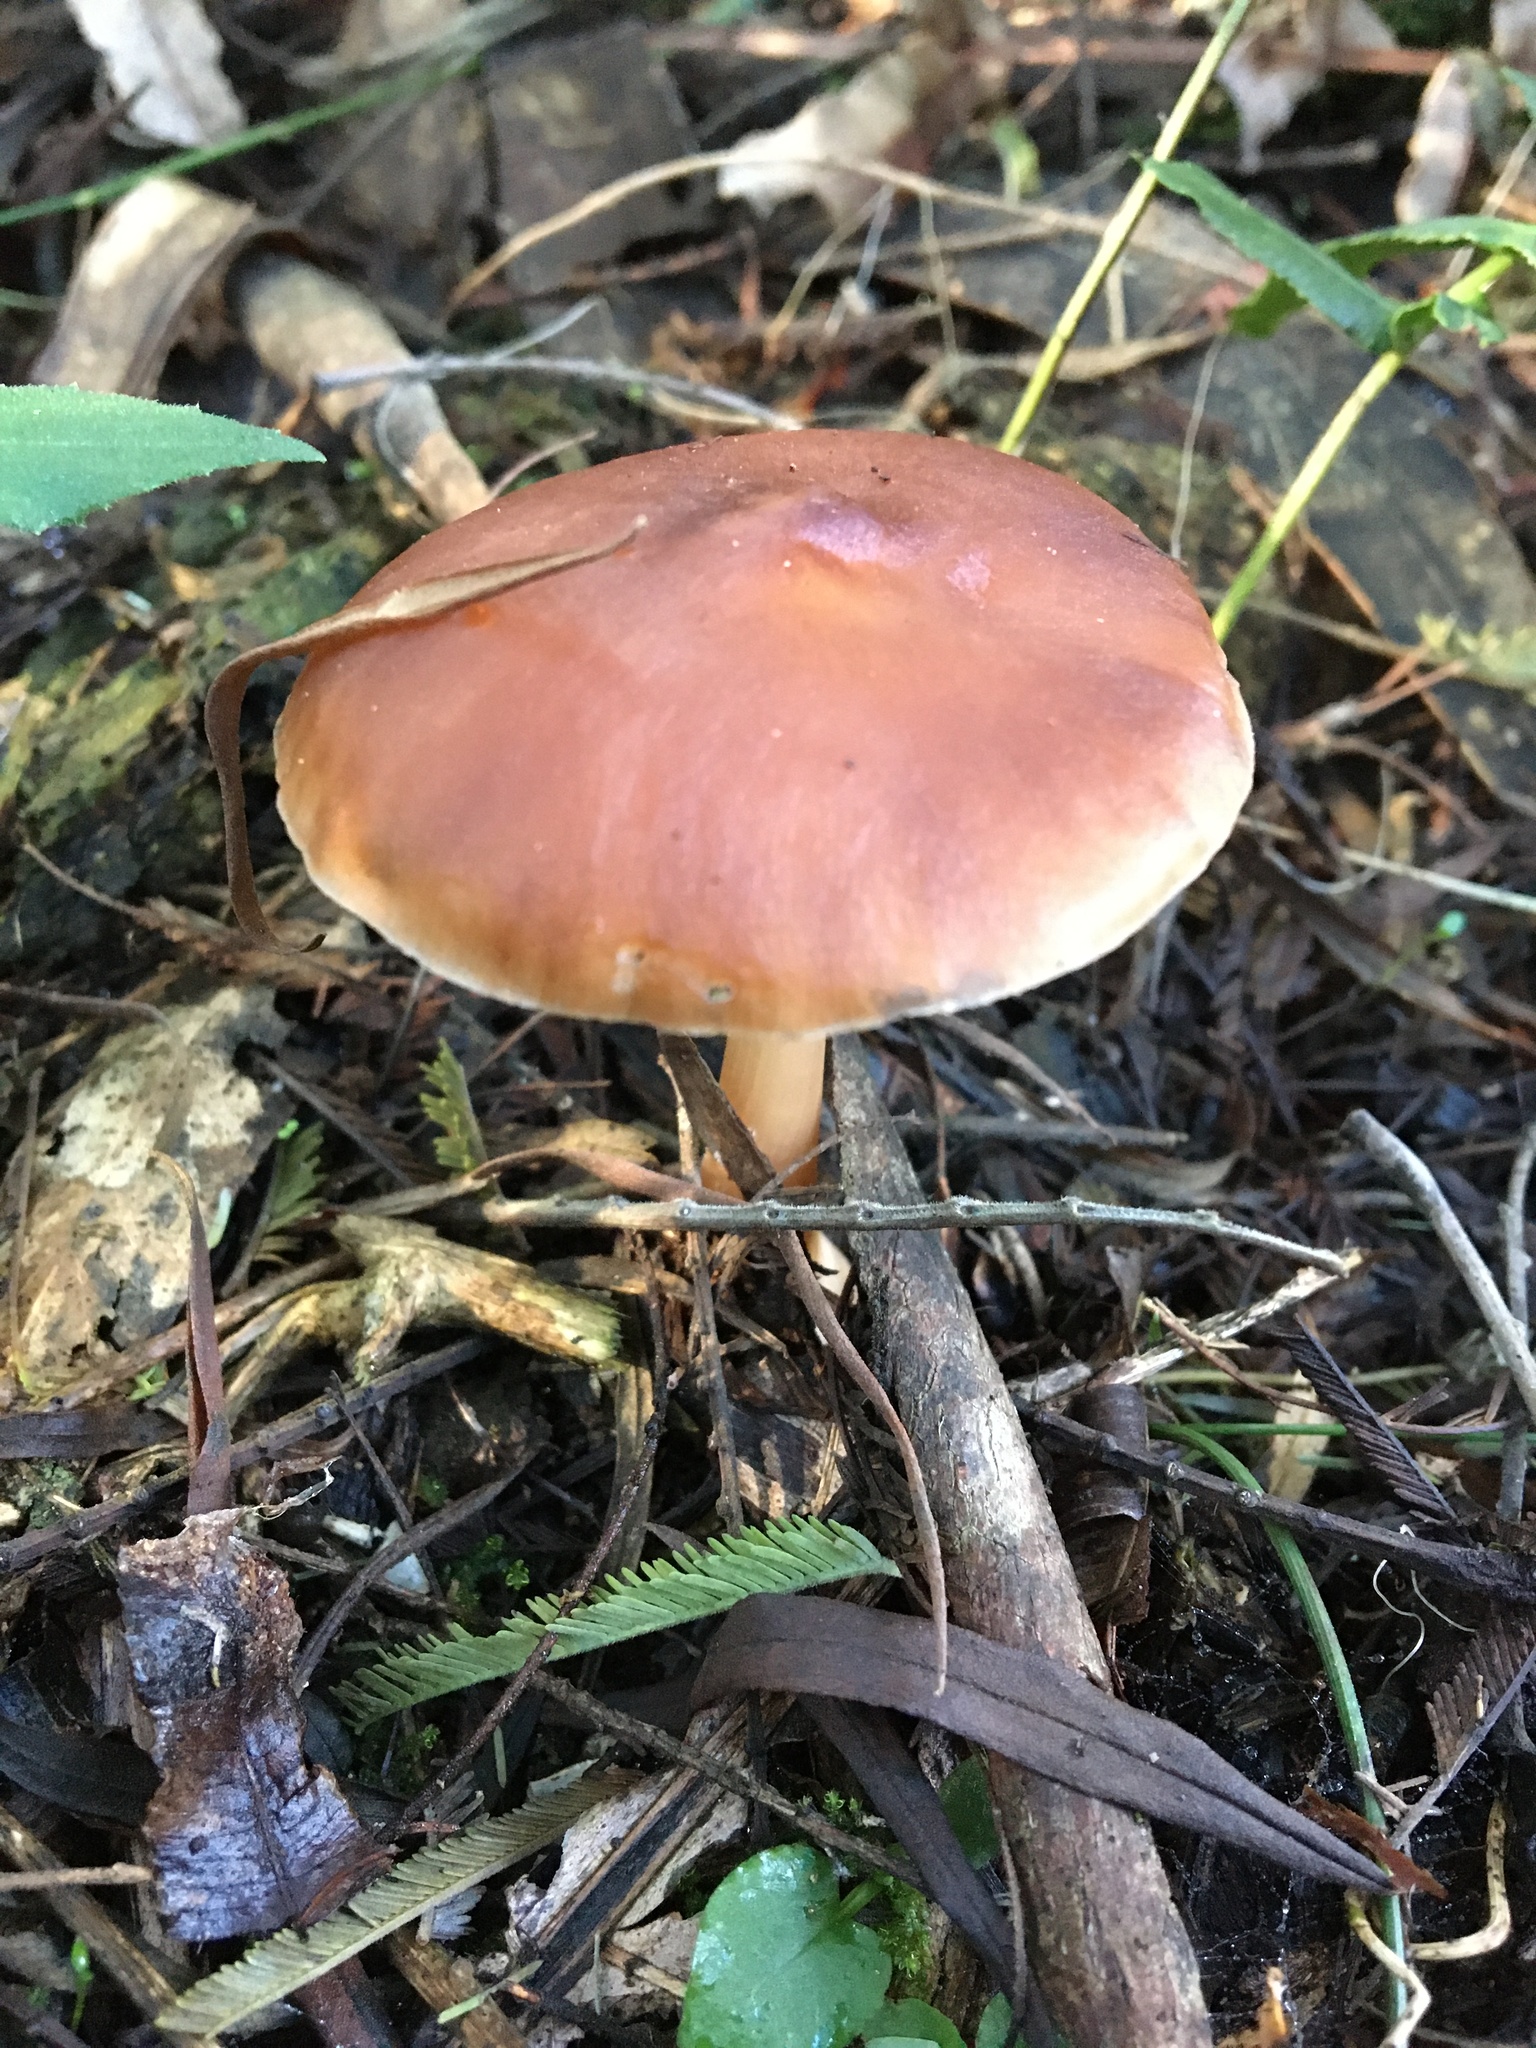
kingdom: Fungi
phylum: Basidiomycota
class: Agaricomycetes
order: Agaricales
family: Omphalotaceae
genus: Rhodocollybia
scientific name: Rhodocollybia butyracea
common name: Butter cap
